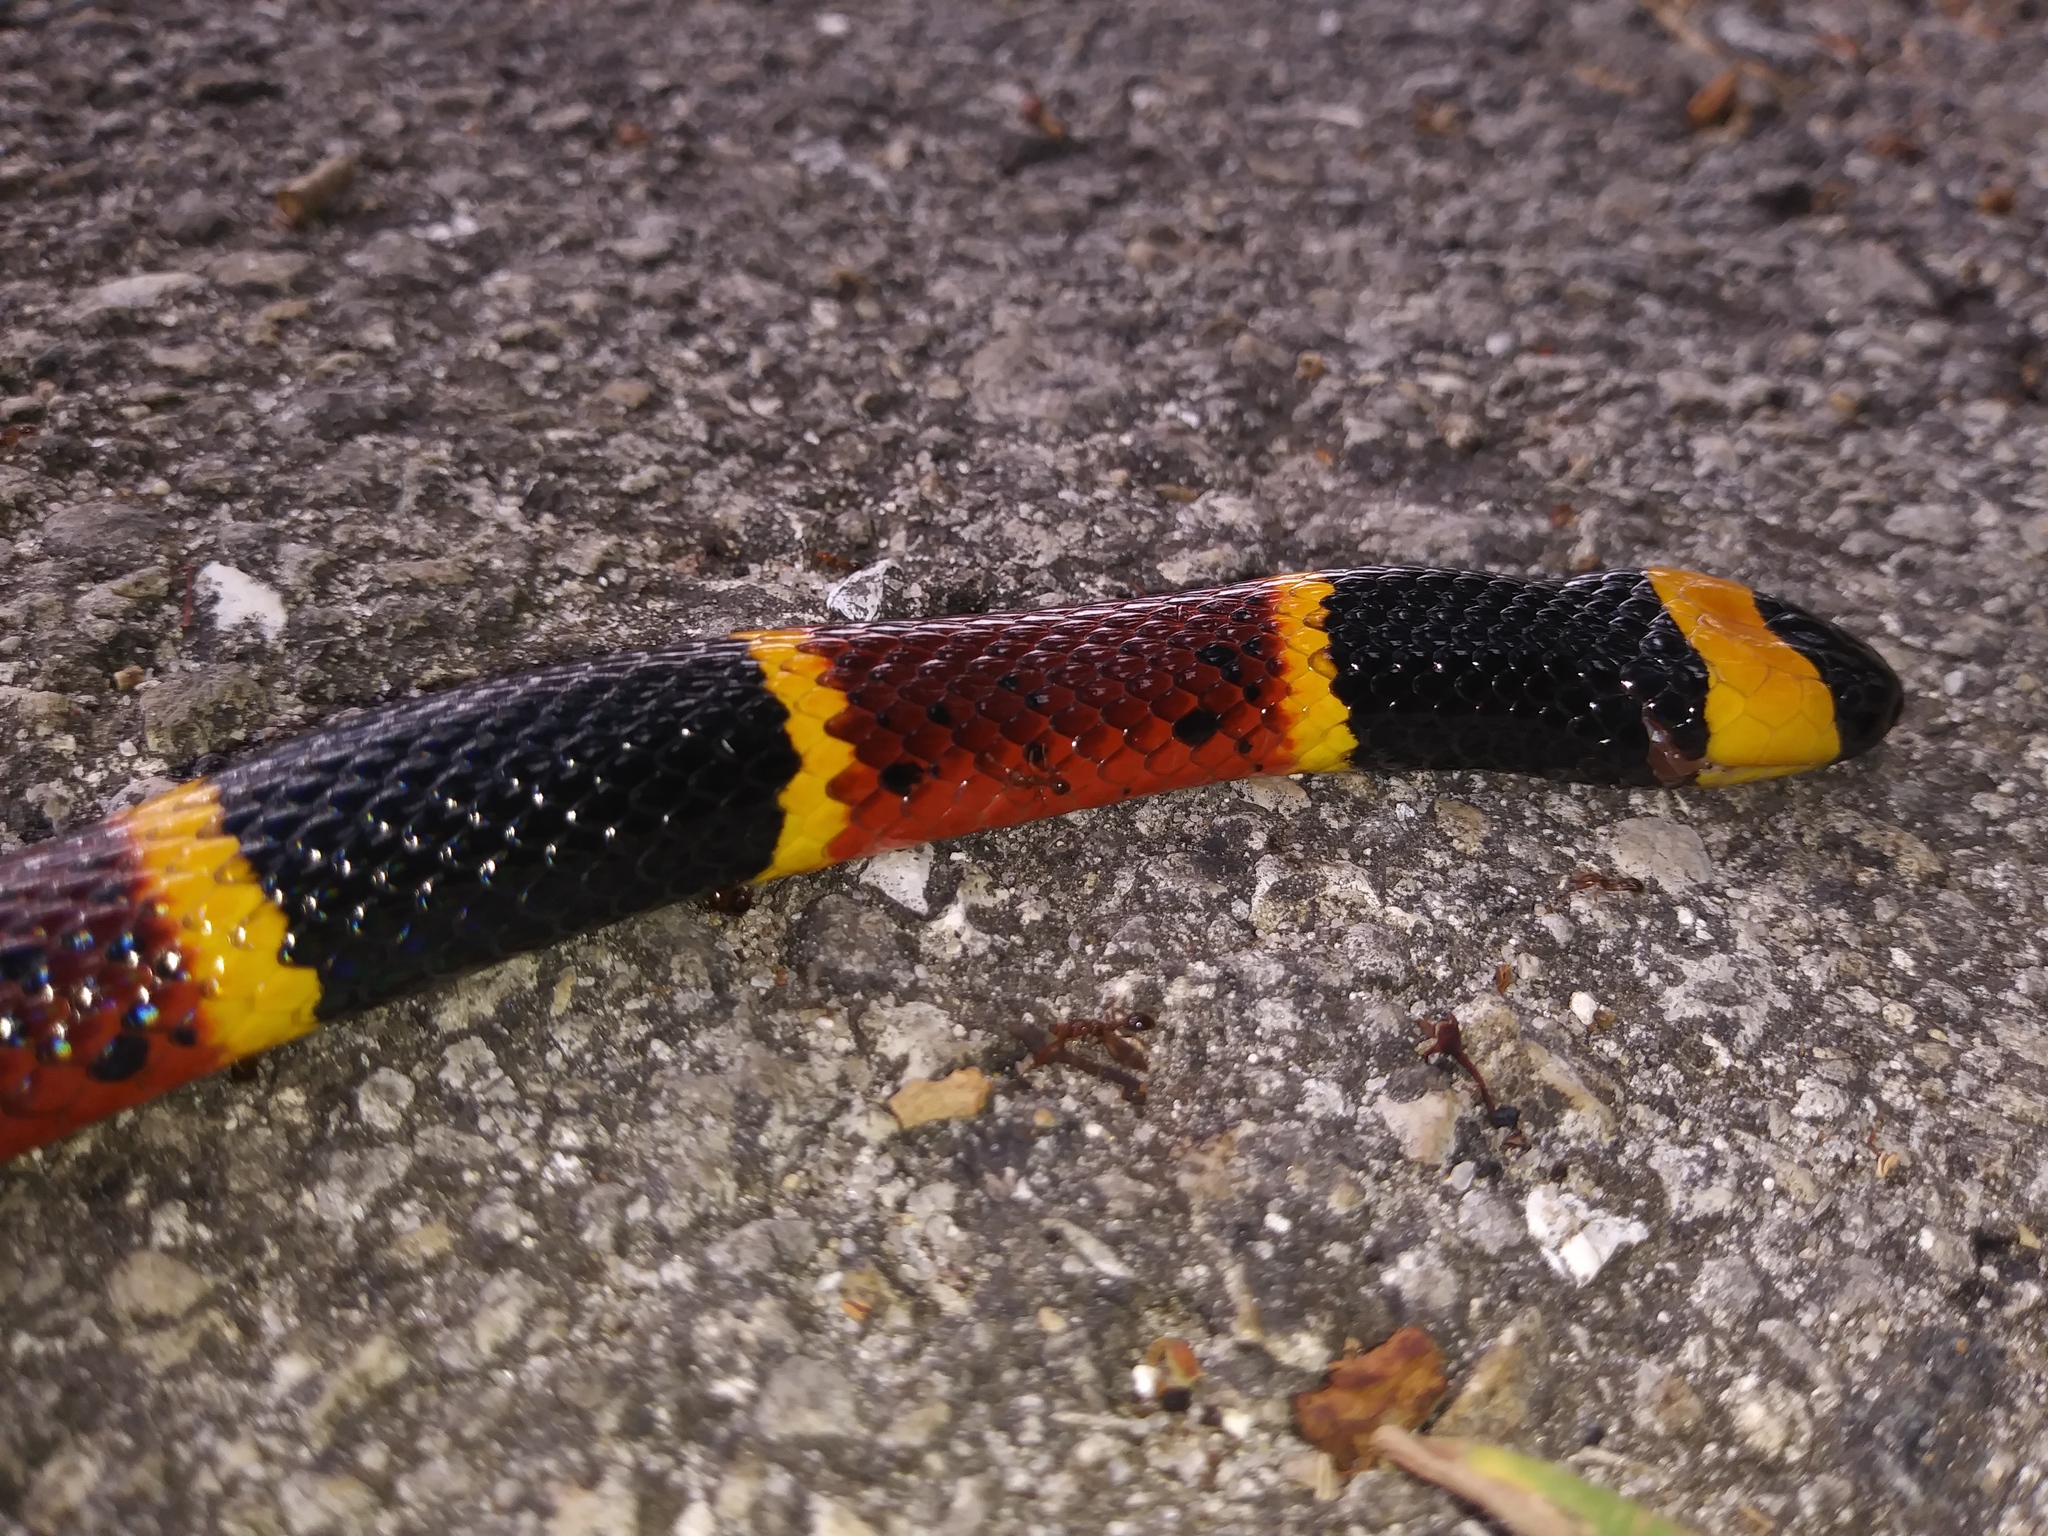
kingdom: Animalia
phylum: Chordata
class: Squamata
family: Elapidae
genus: Micrurus
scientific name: Micrurus fulvius
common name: Eastern coral snake
